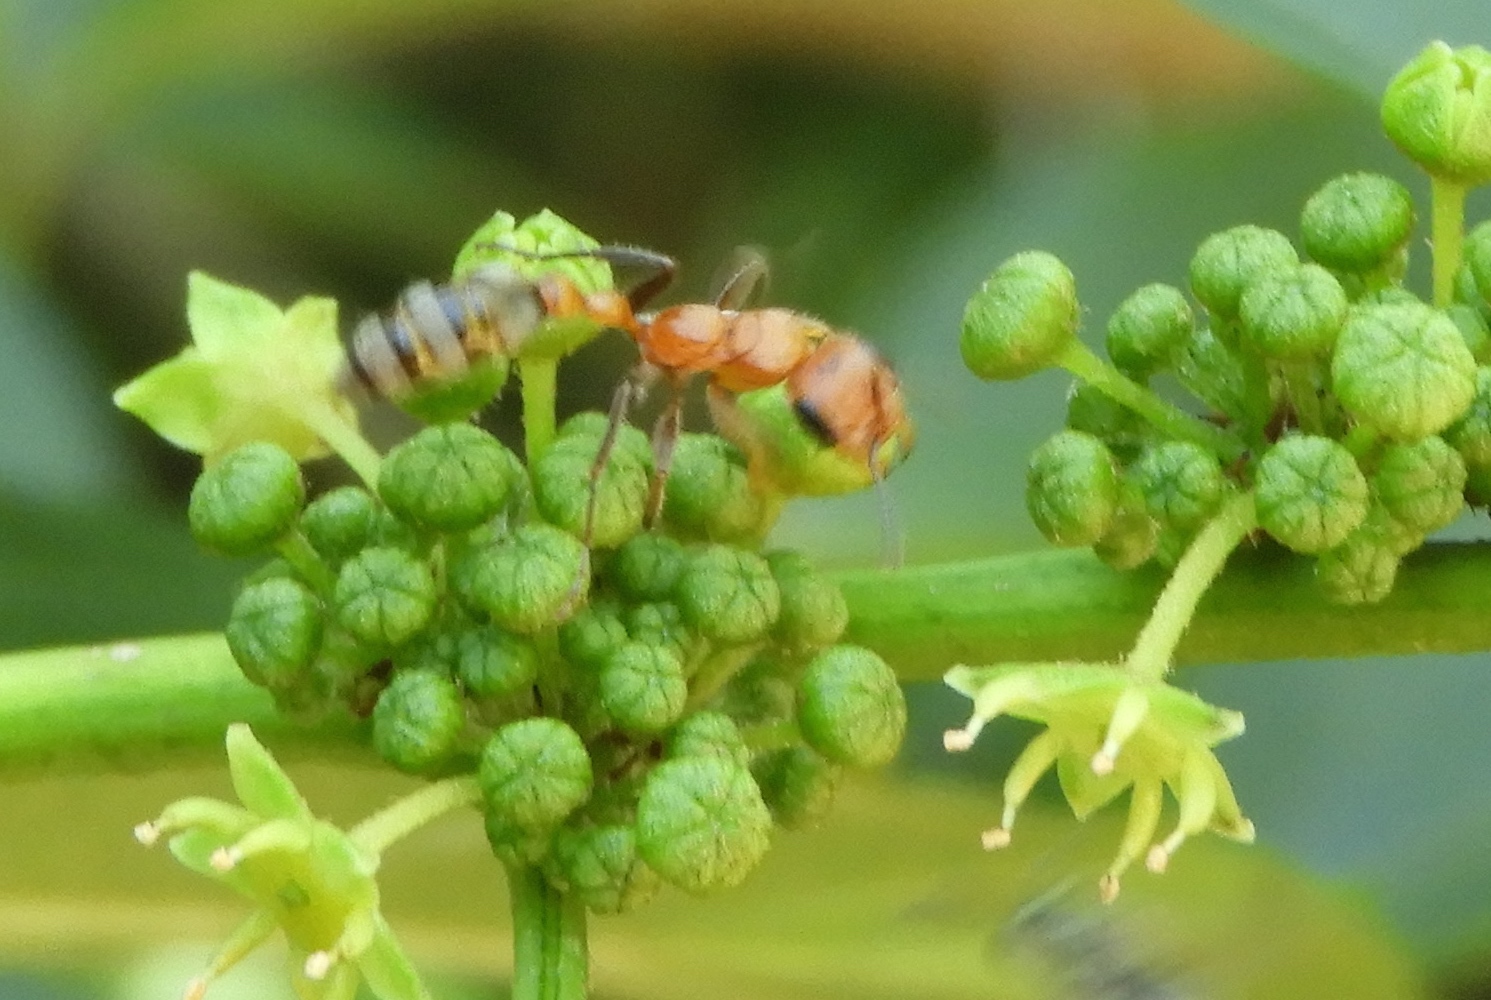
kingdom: Animalia
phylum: Arthropoda
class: Insecta
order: Hymenoptera
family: Formicidae
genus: Pseudomyrmex
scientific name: Pseudomyrmex
